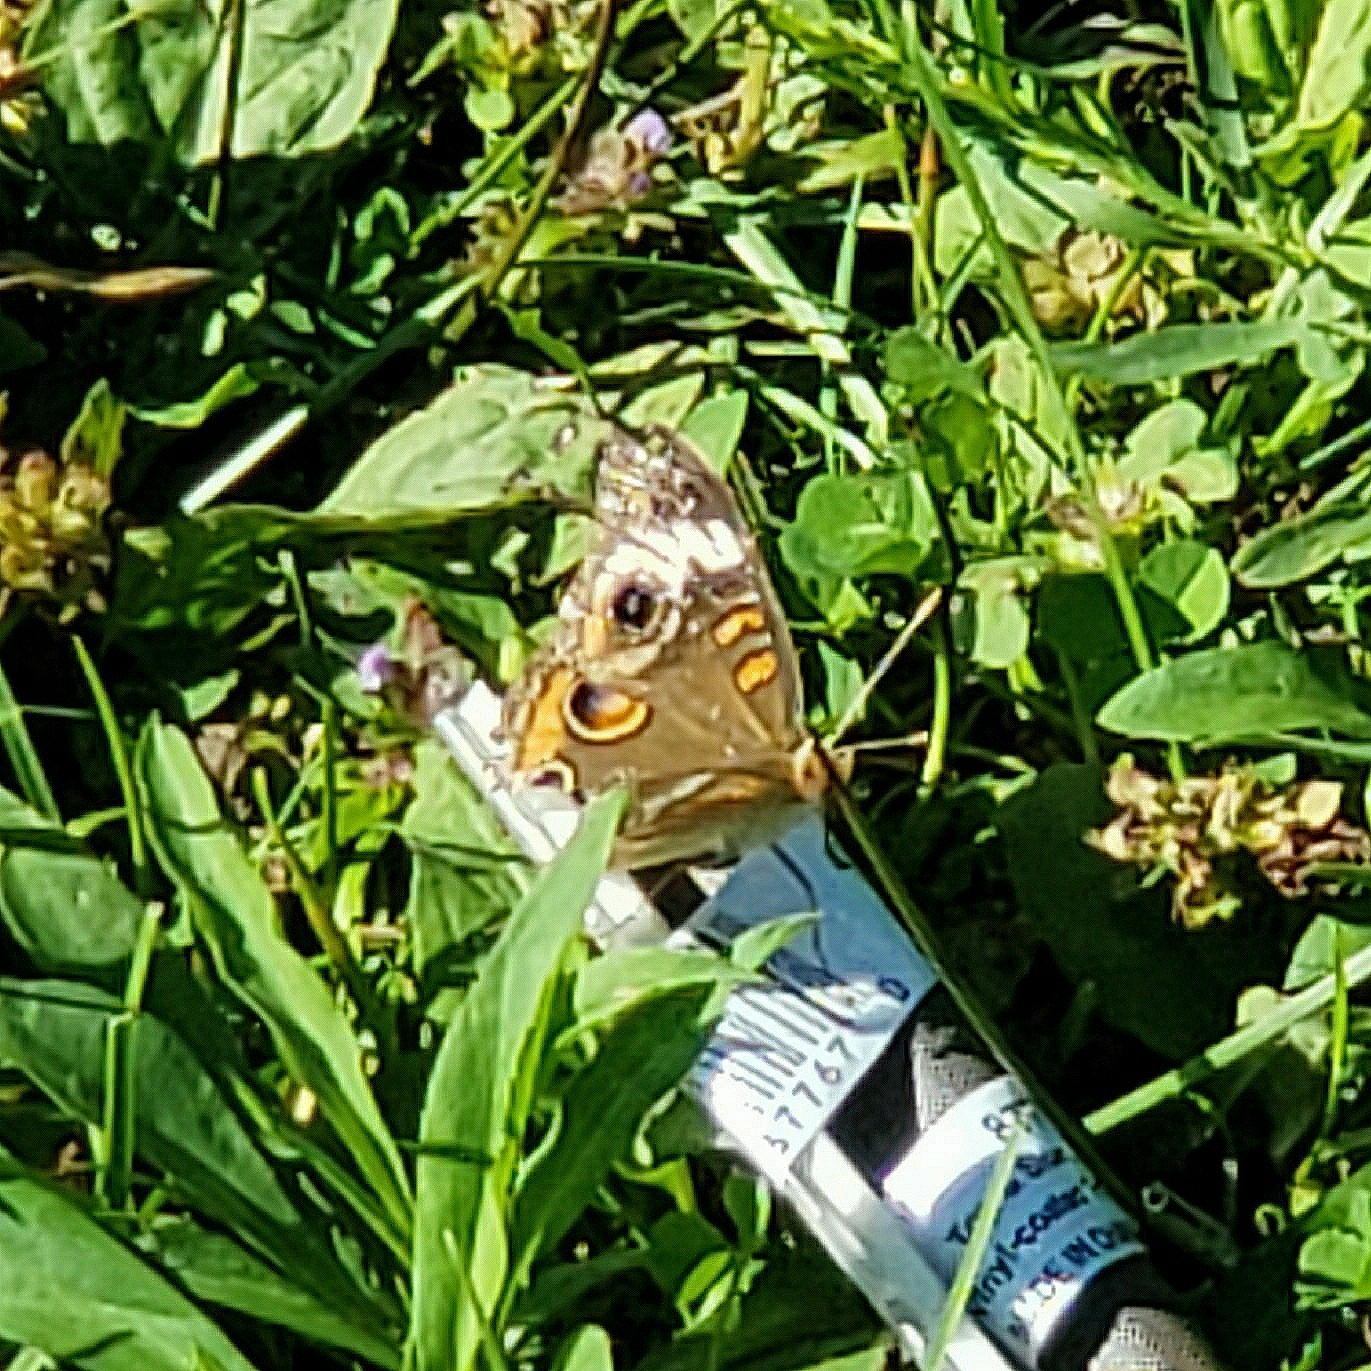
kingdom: Animalia
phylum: Arthropoda
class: Insecta
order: Lepidoptera
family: Nymphalidae
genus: Junonia
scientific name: Junonia coenia
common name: Common buckeye
